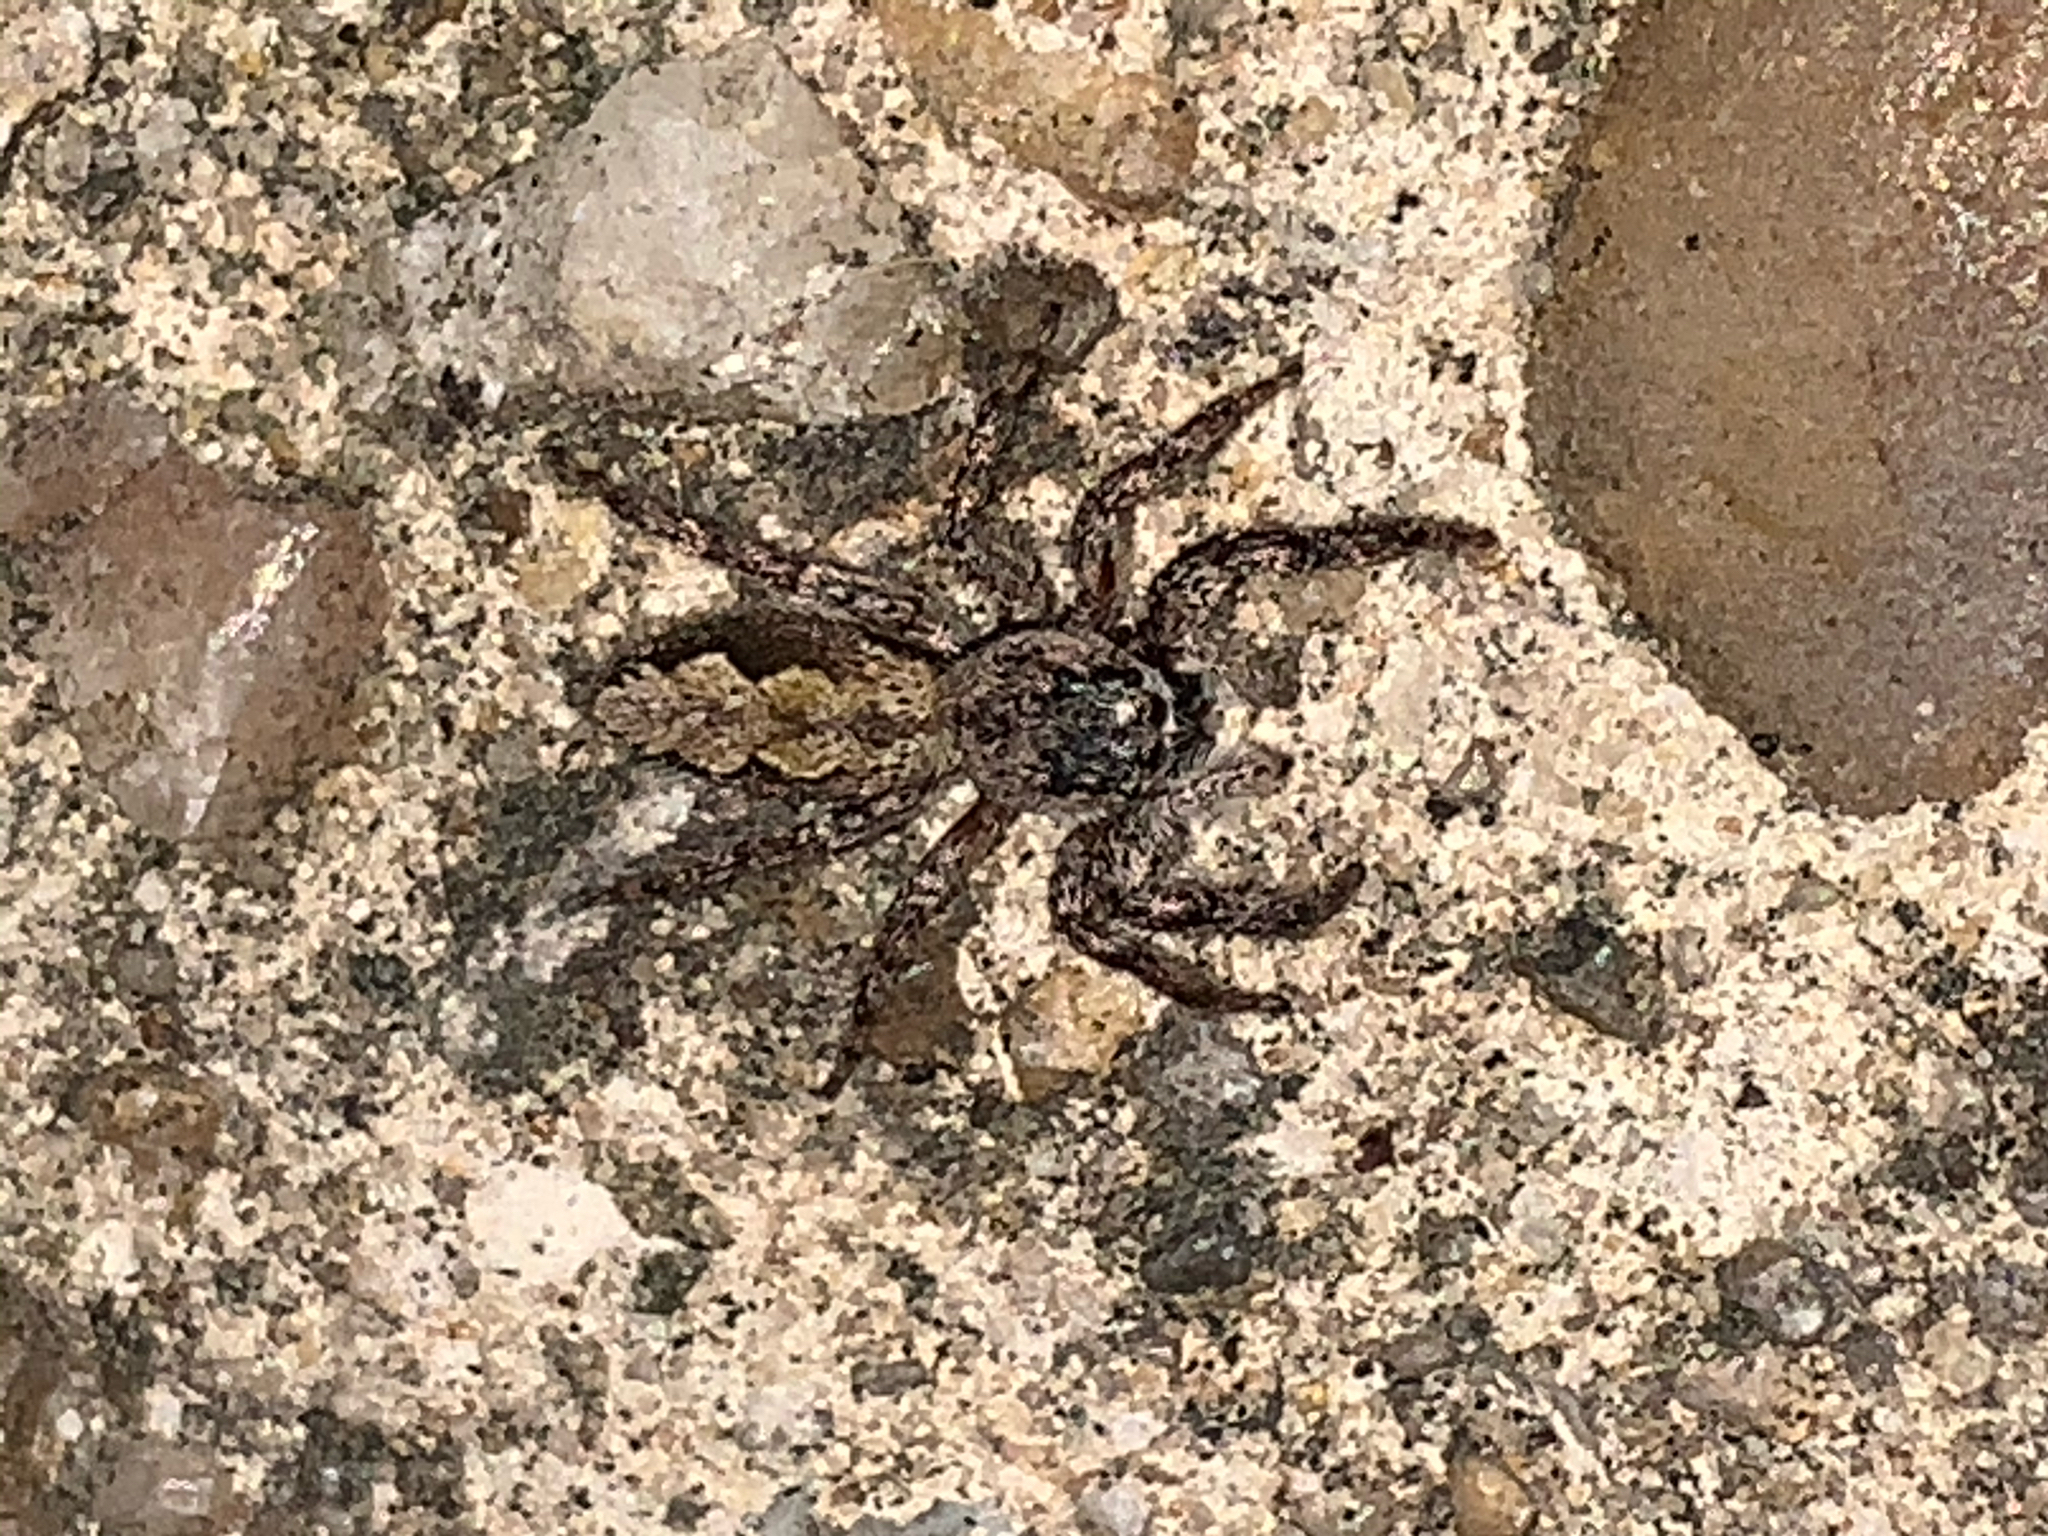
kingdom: Animalia
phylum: Arthropoda
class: Arachnida
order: Araneae
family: Salticidae
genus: Platycryptus
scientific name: Platycryptus undatus
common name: Tan jumping spider
